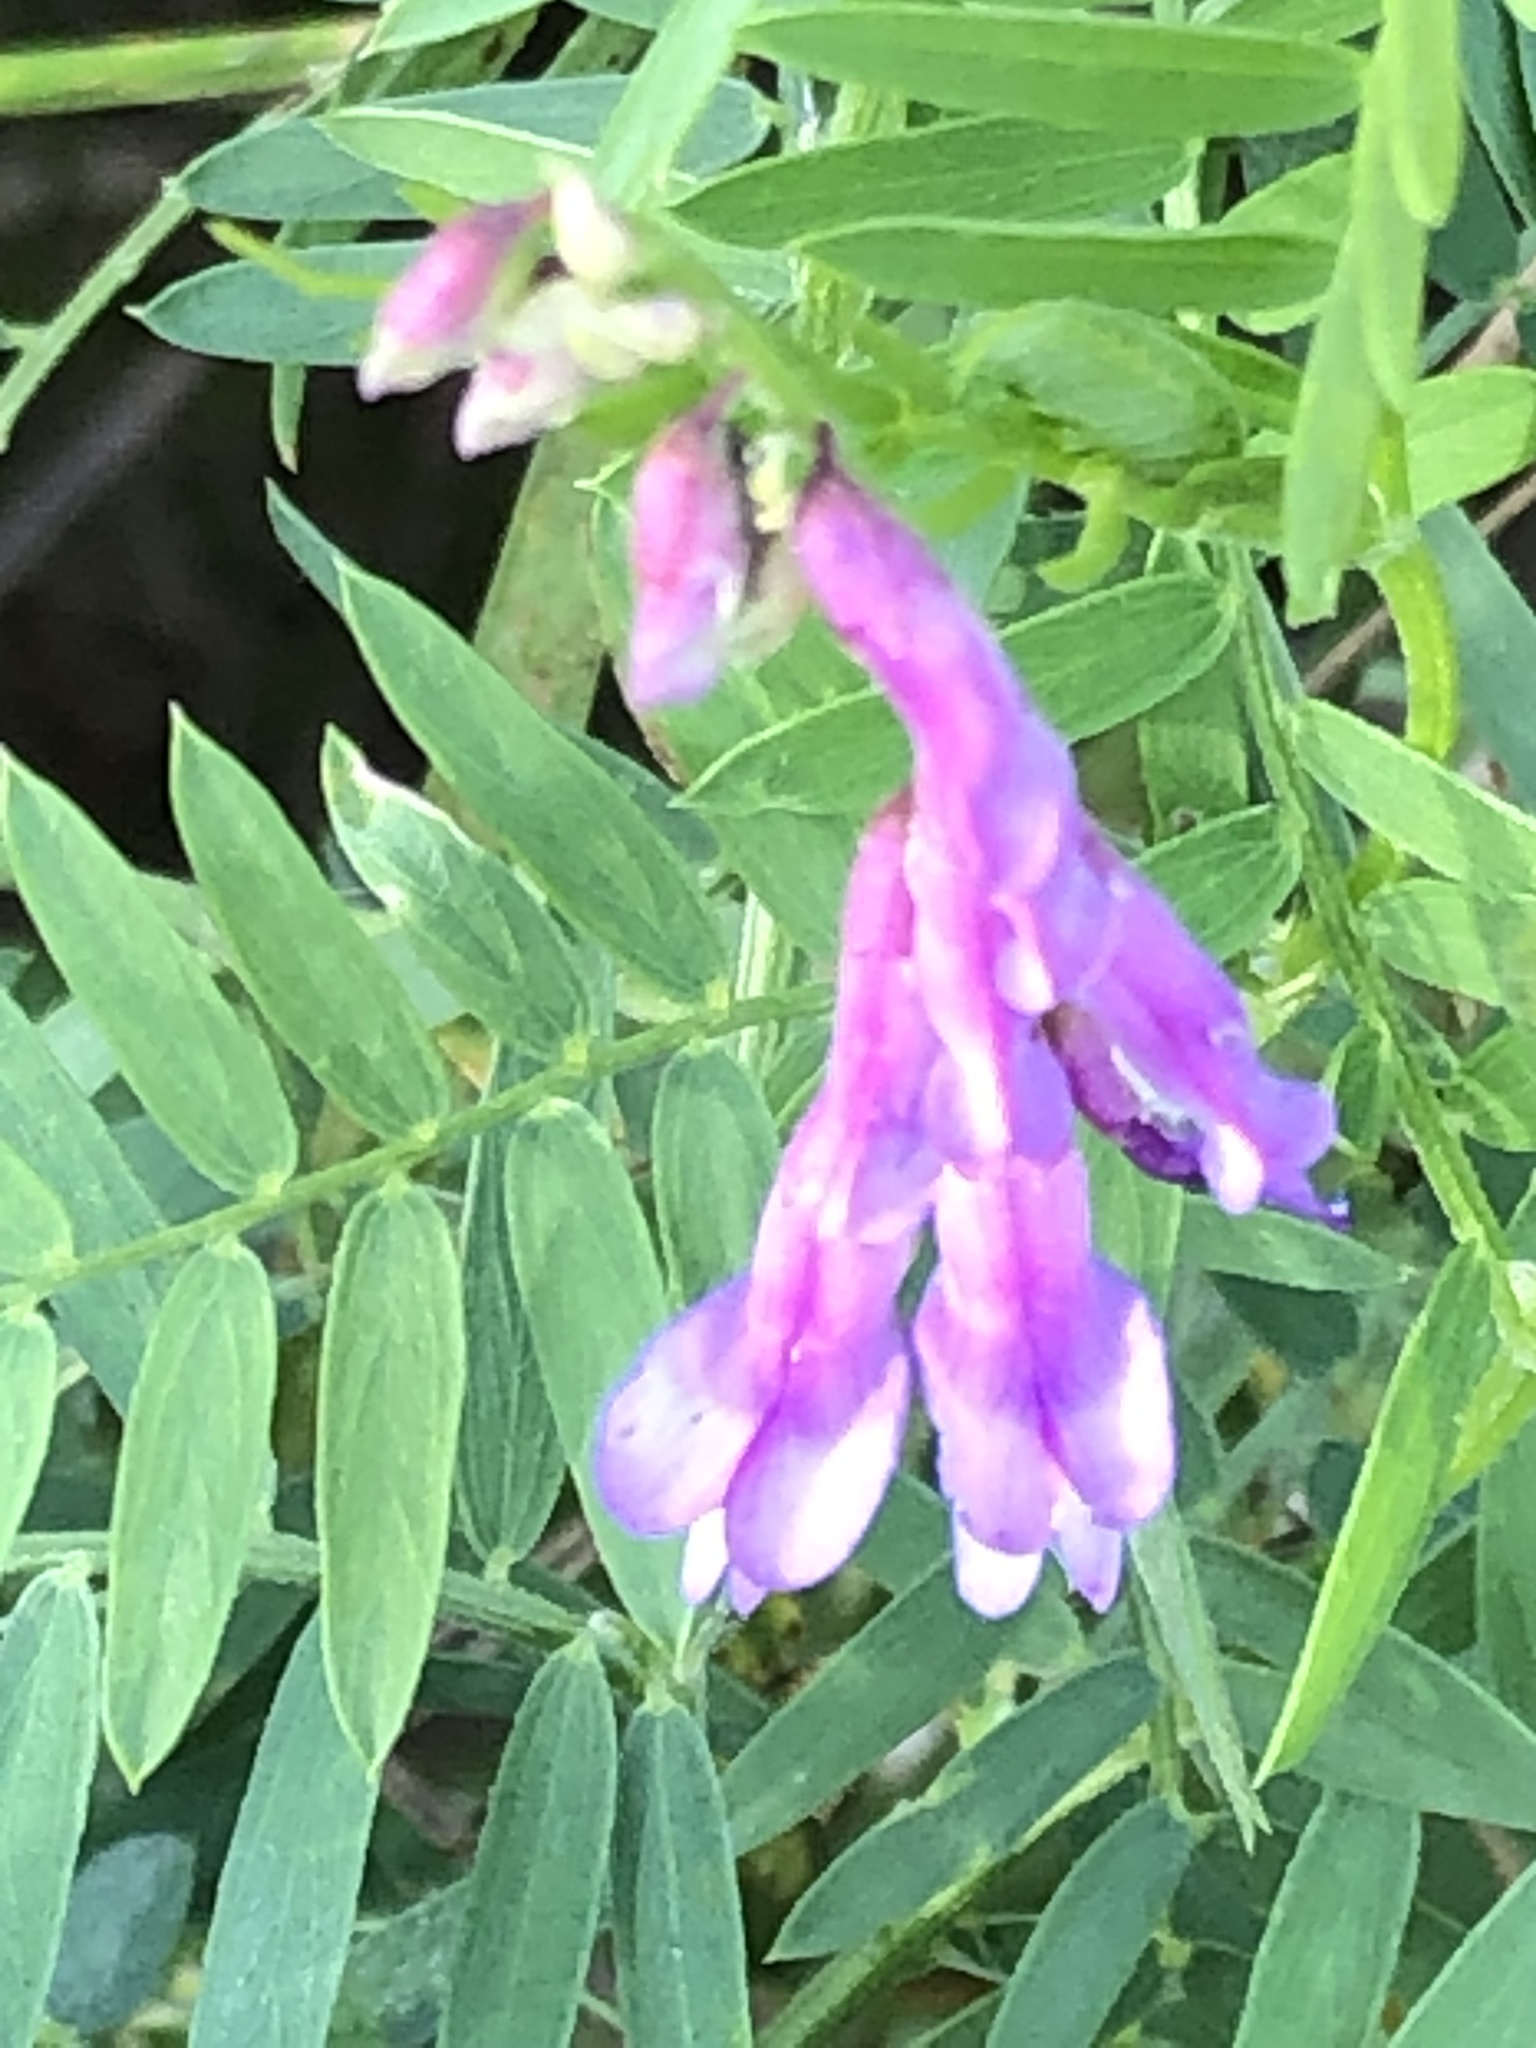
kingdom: Plantae
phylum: Tracheophyta
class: Magnoliopsida
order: Fabales
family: Fabaceae
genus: Vicia
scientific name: Vicia cracca
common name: Bird vetch
